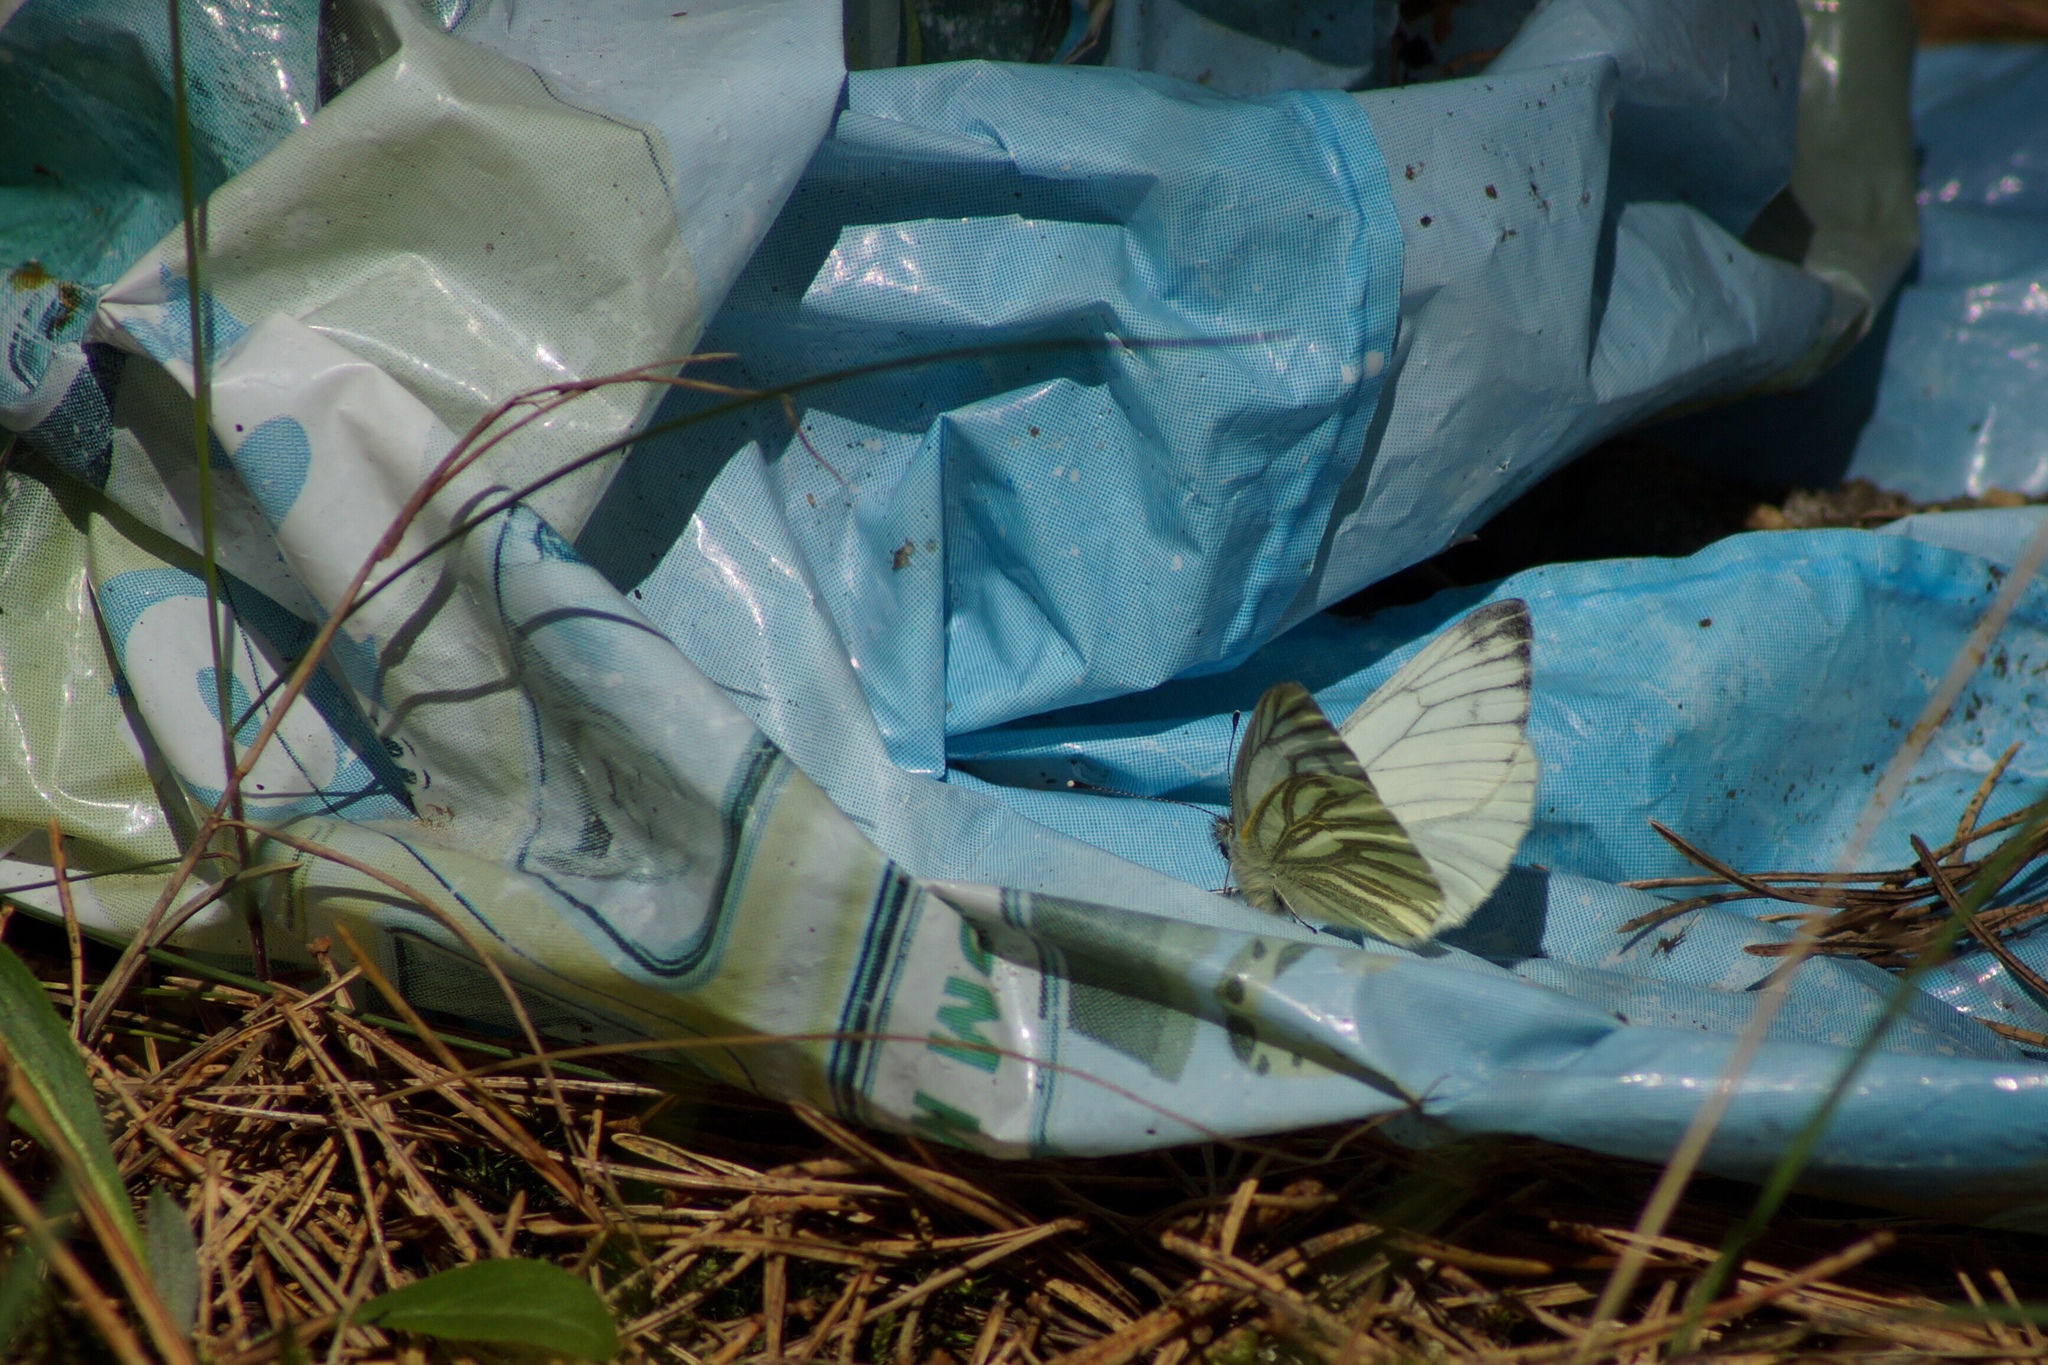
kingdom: Animalia
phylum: Arthropoda
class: Insecta
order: Lepidoptera
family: Pieridae
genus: Pieris
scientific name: Pieris napi
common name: Green-veined white
